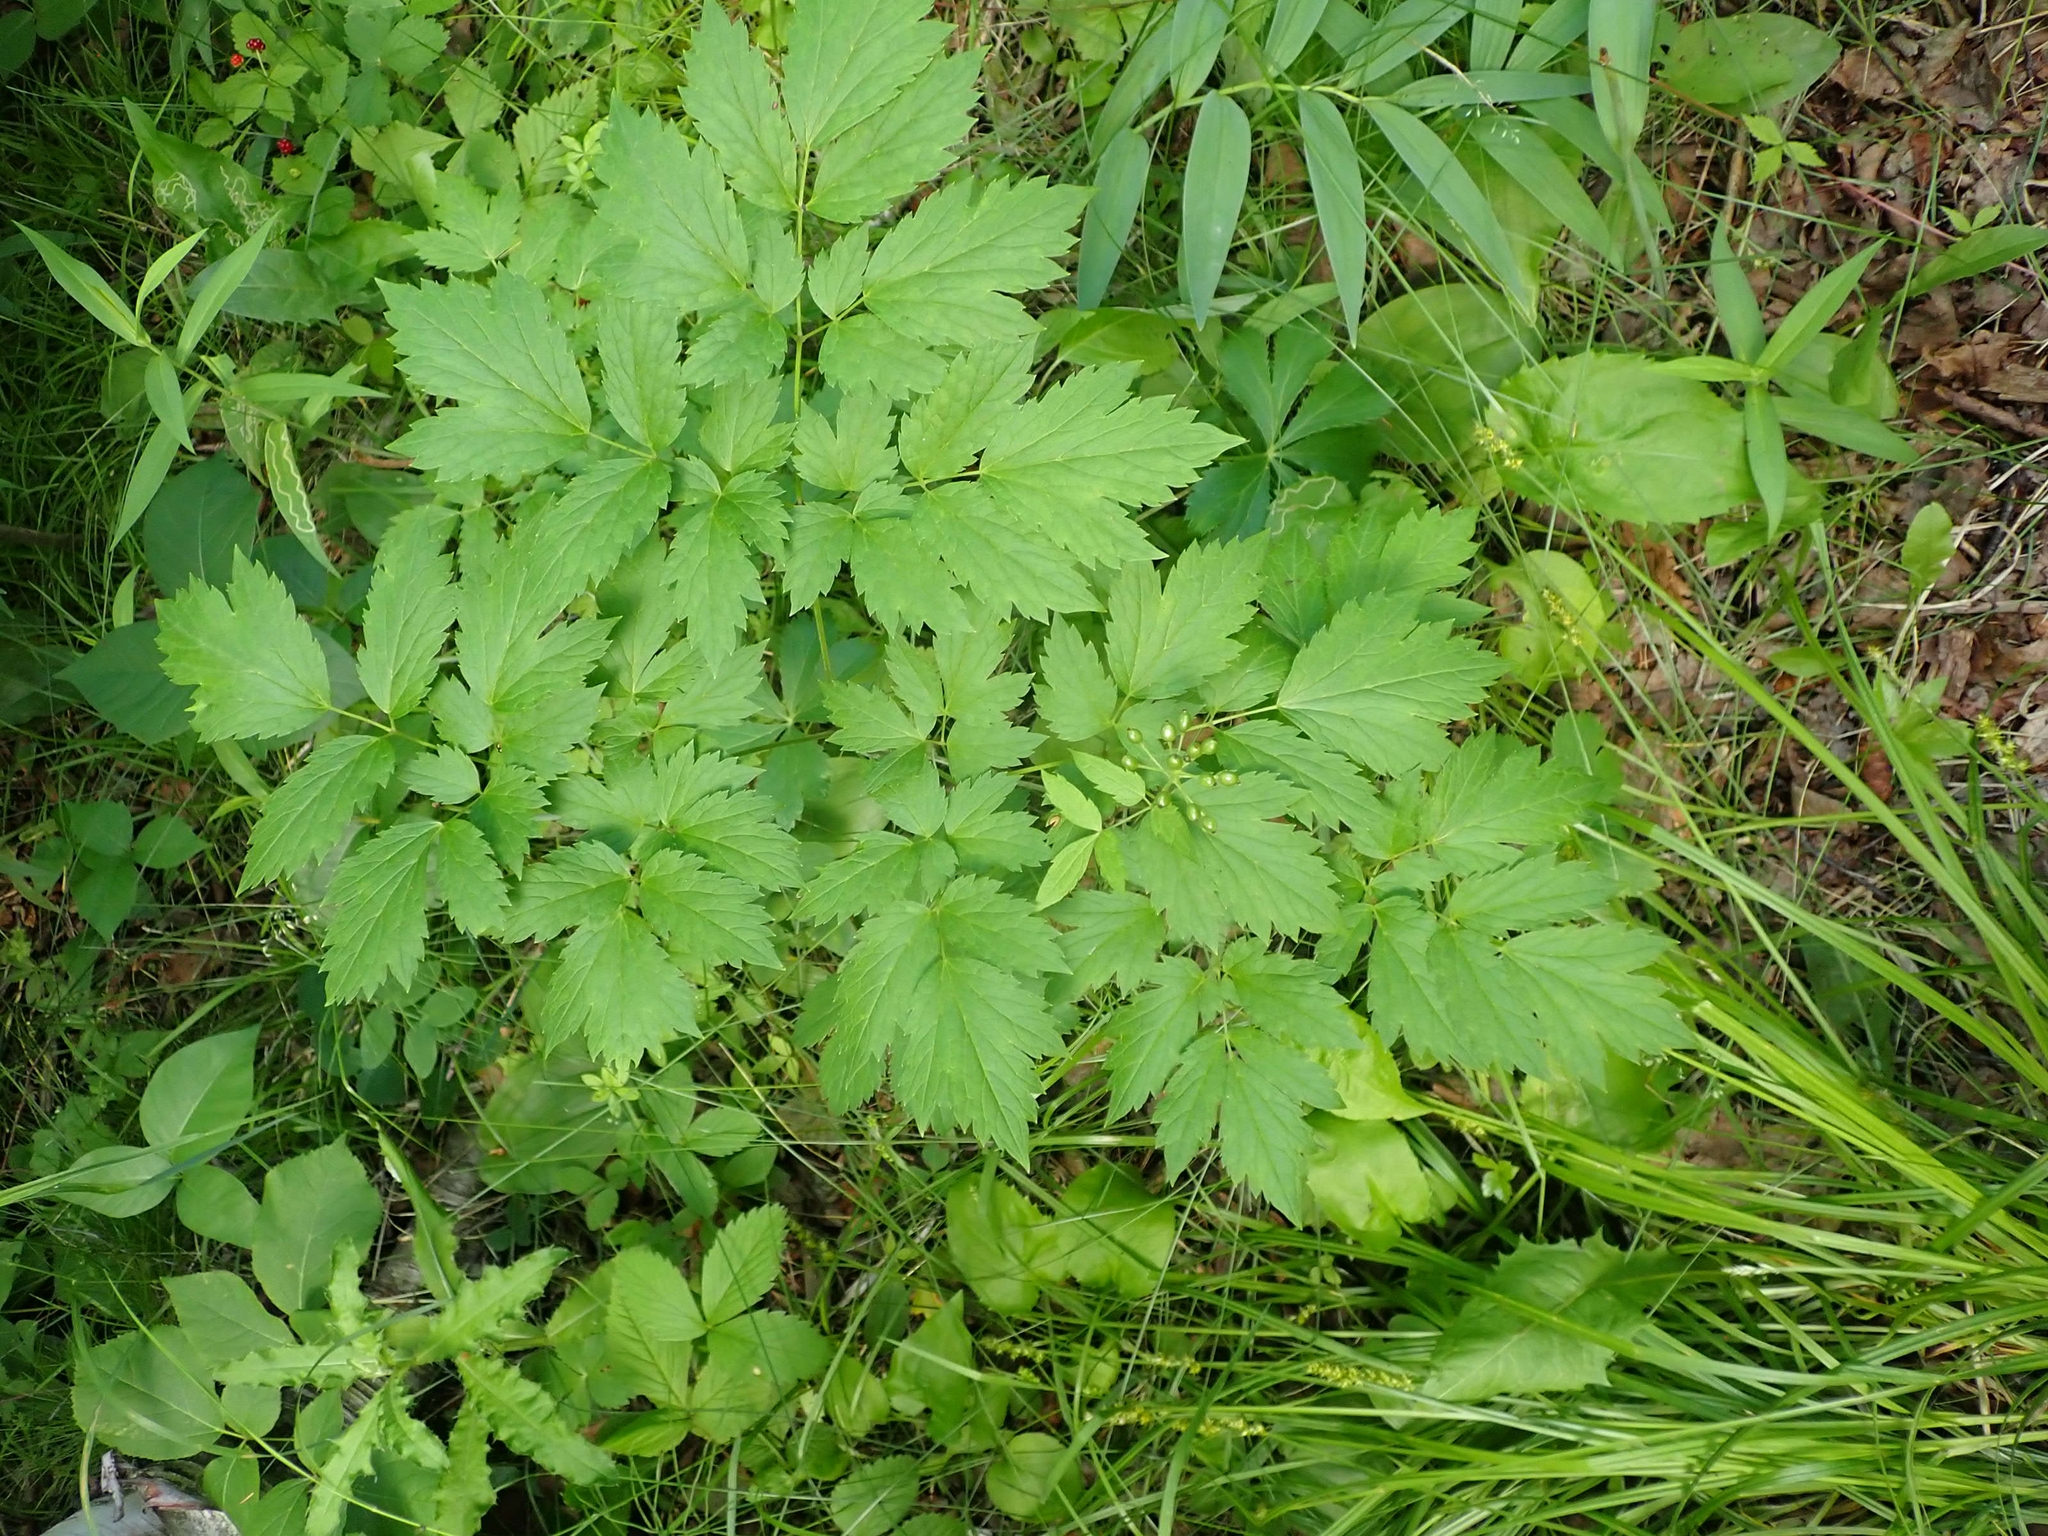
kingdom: Plantae
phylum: Tracheophyta
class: Magnoliopsida
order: Ranunculales
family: Ranunculaceae
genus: Actaea
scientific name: Actaea rubra
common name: Red baneberry
